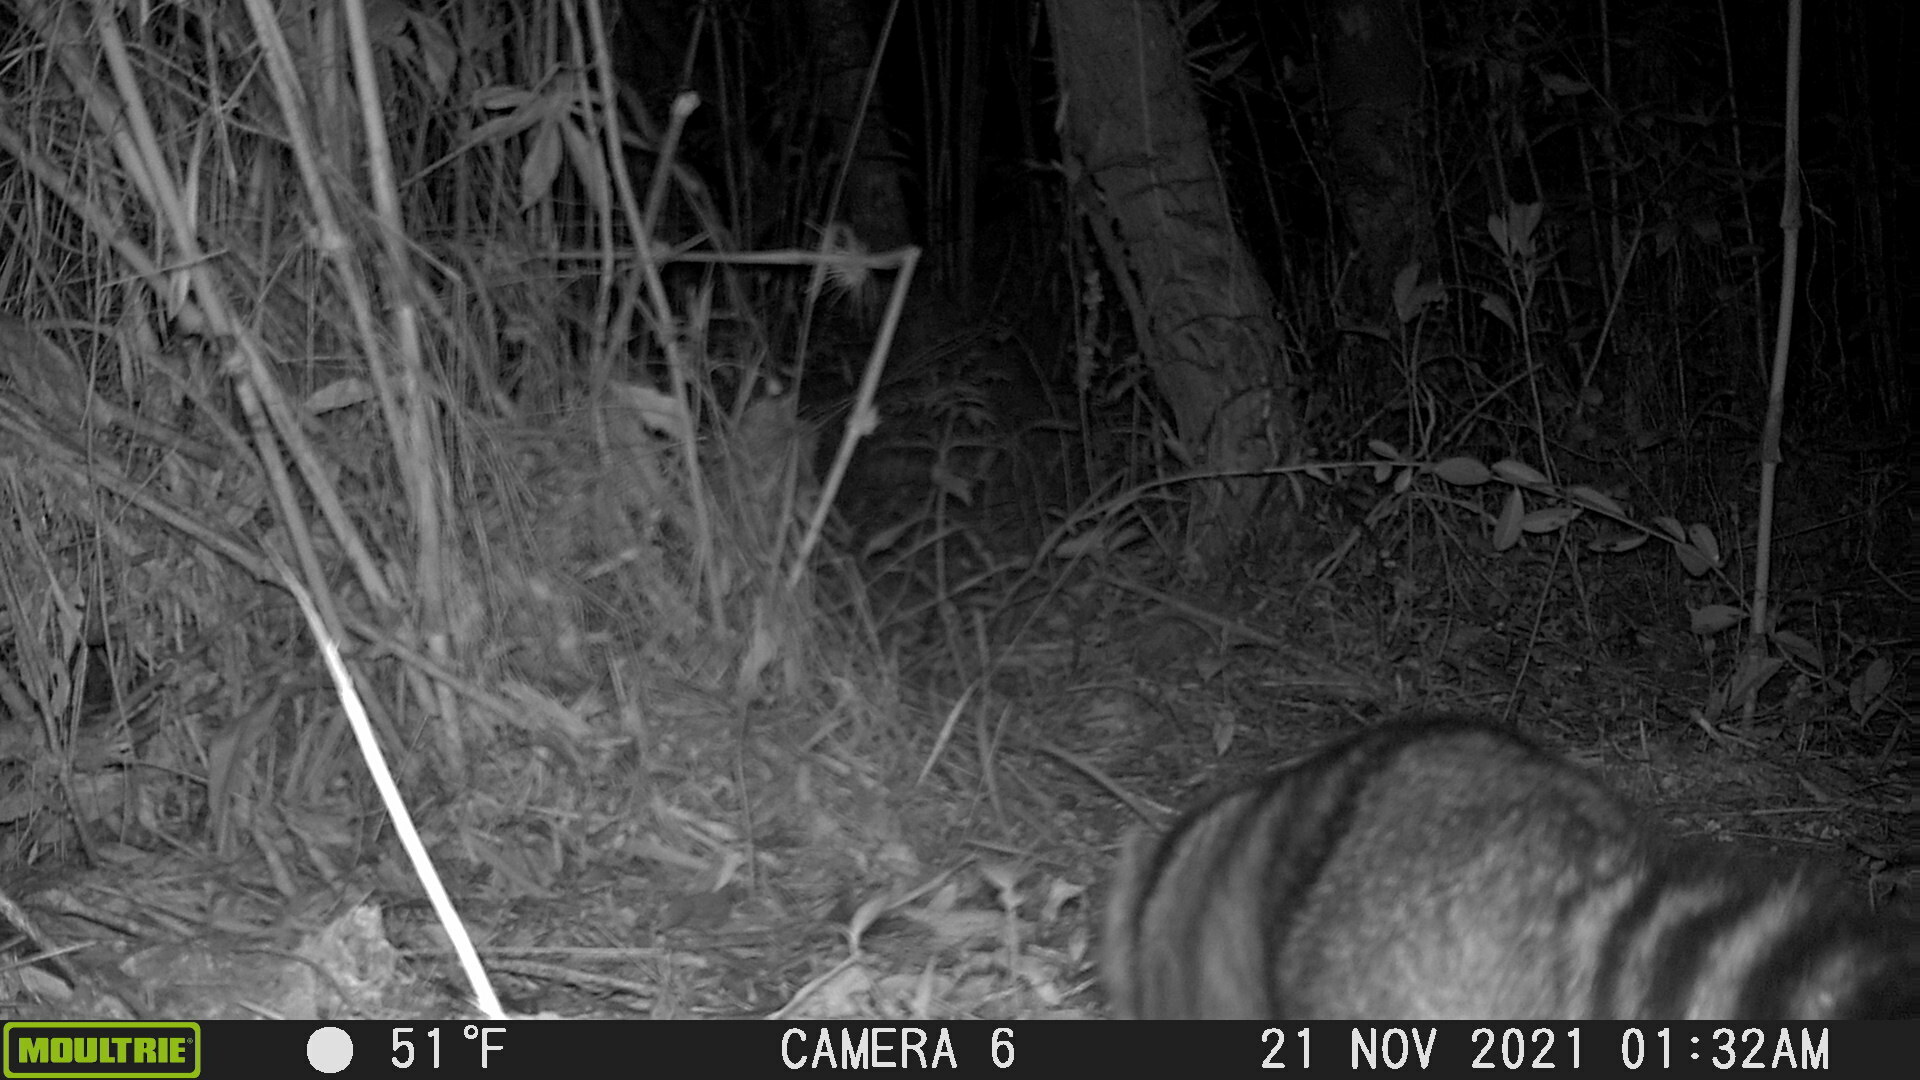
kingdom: Animalia
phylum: Chordata
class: Mammalia
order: Carnivora
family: Procyonidae
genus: Nasua
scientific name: Nasua olivacea
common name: Mountain coati
